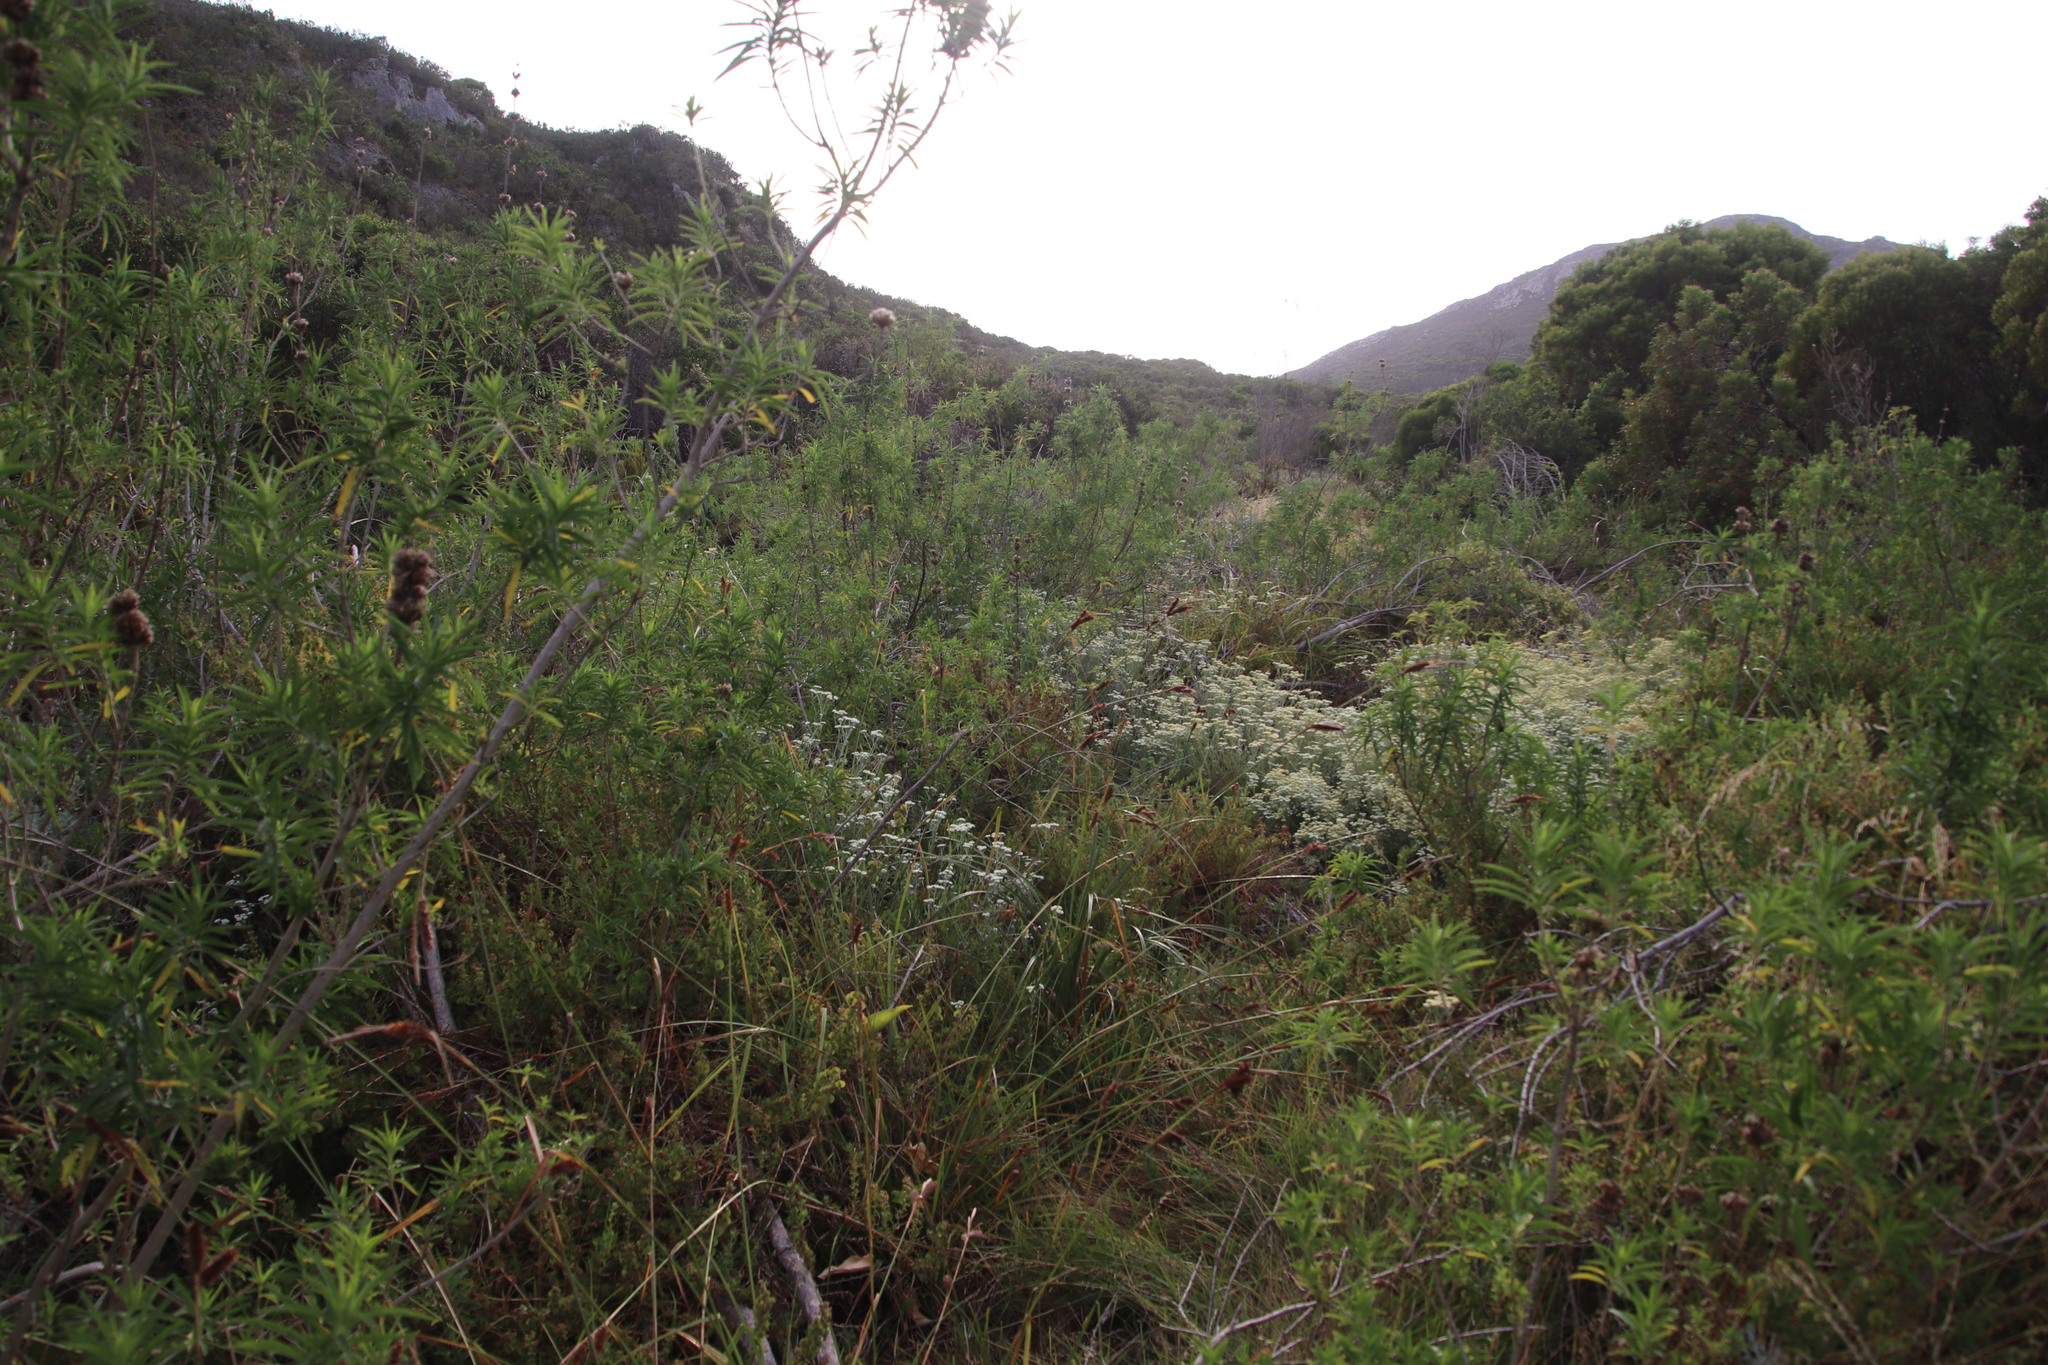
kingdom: Plantae
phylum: Tracheophyta
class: Magnoliopsida
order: Lamiales
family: Lamiaceae
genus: Leonotis
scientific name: Leonotis leonurus
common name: Lion's ear
